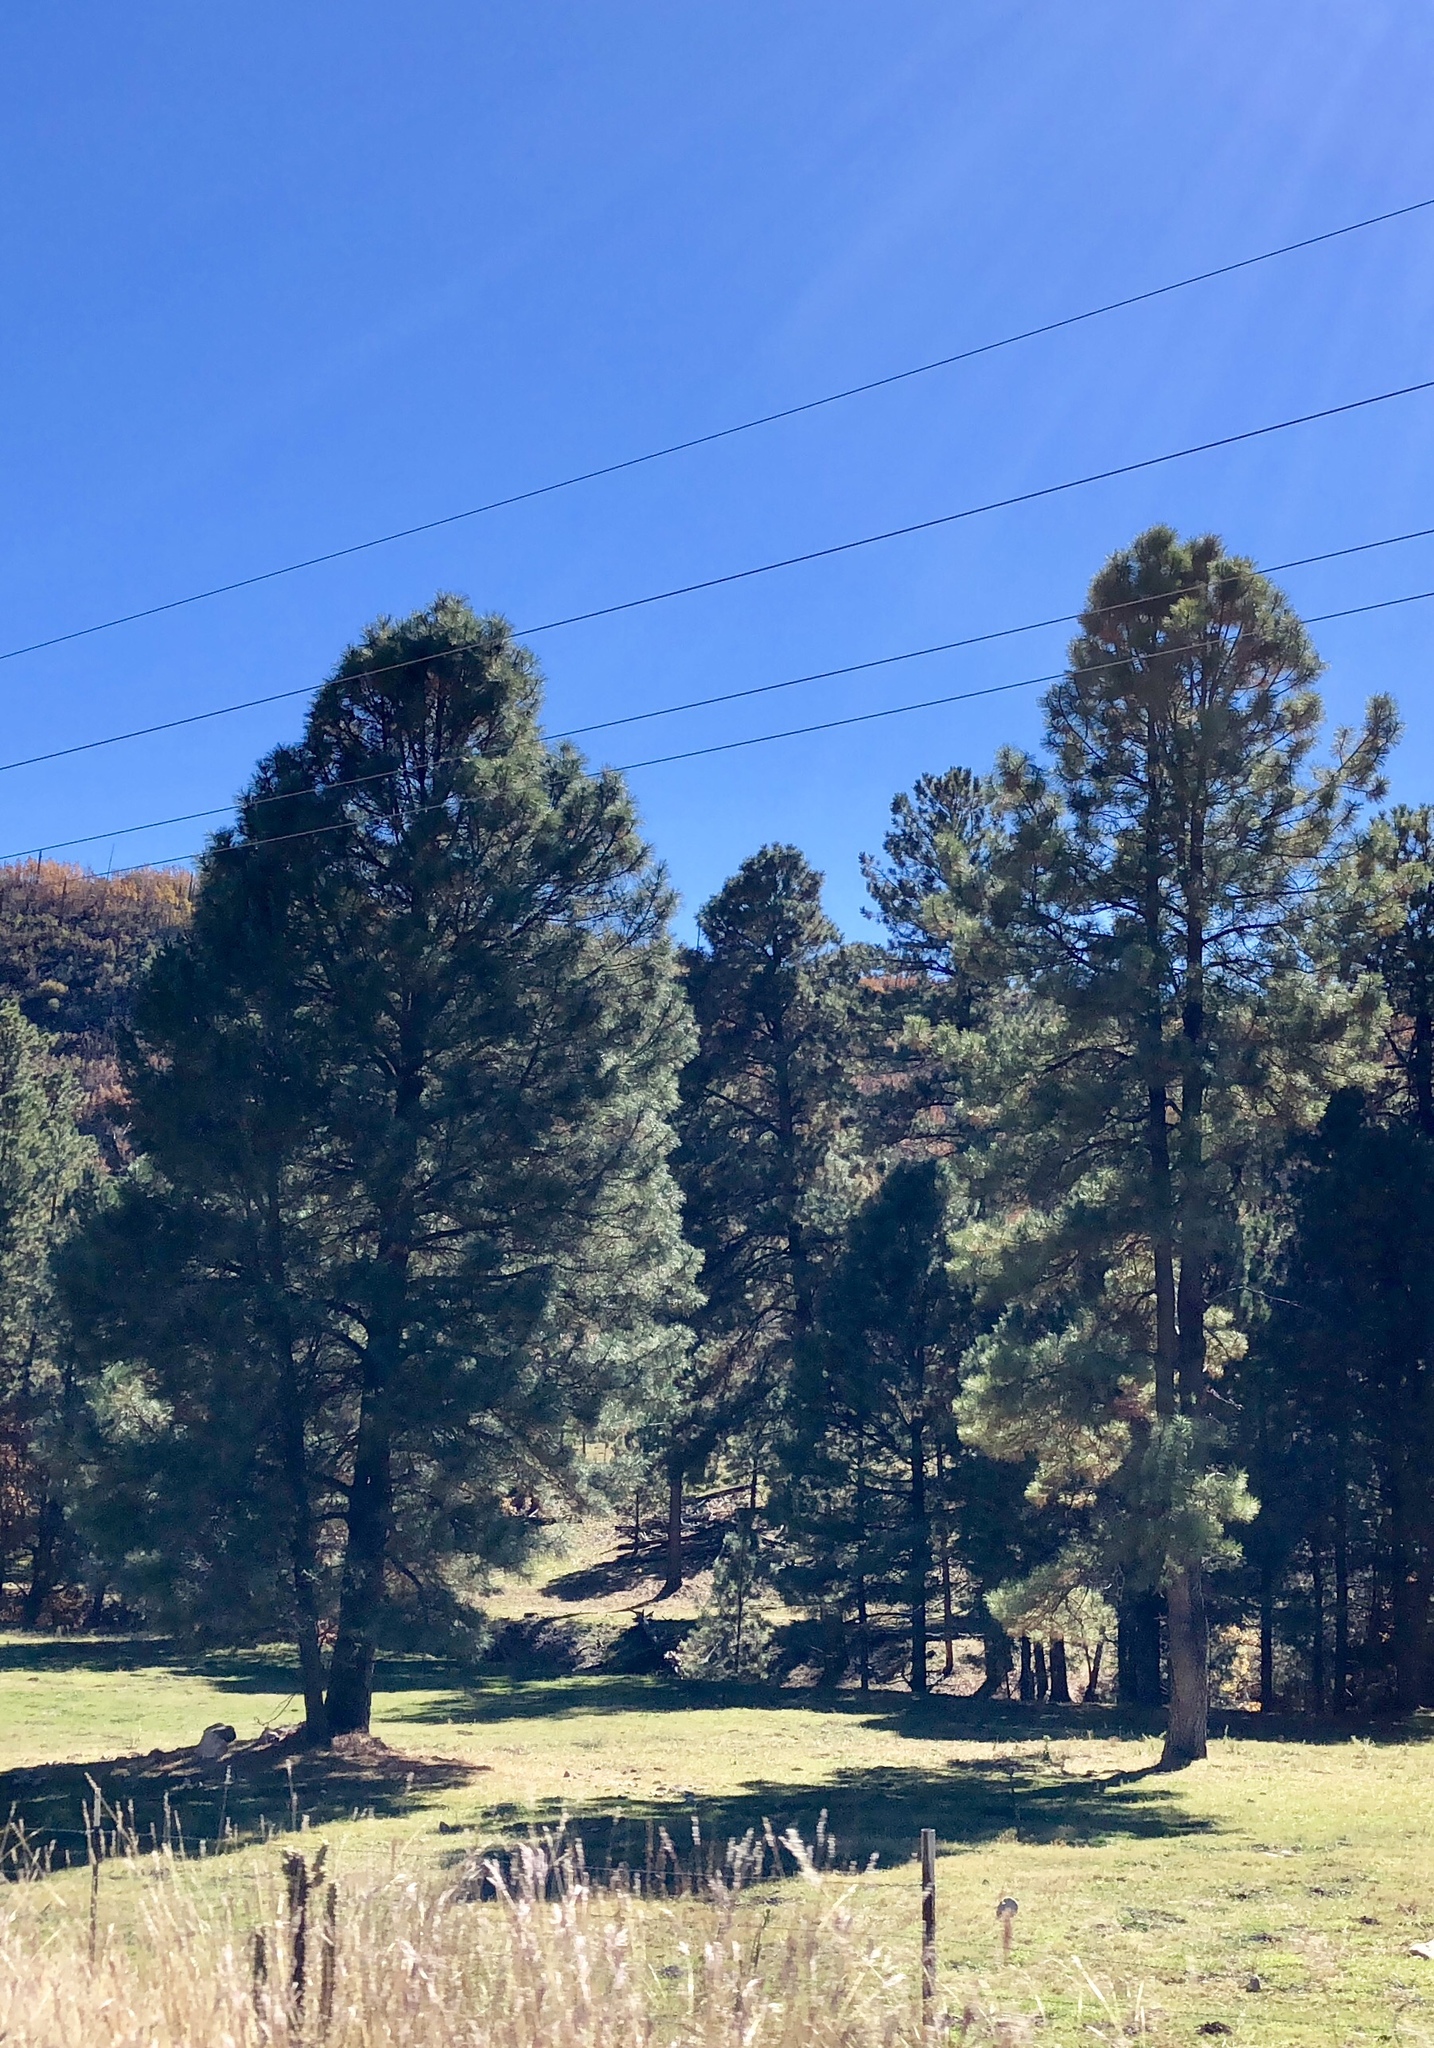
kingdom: Plantae
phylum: Tracheophyta
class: Pinopsida
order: Pinales
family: Pinaceae
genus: Pinus
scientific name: Pinus ponderosa
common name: Western yellow-pine
